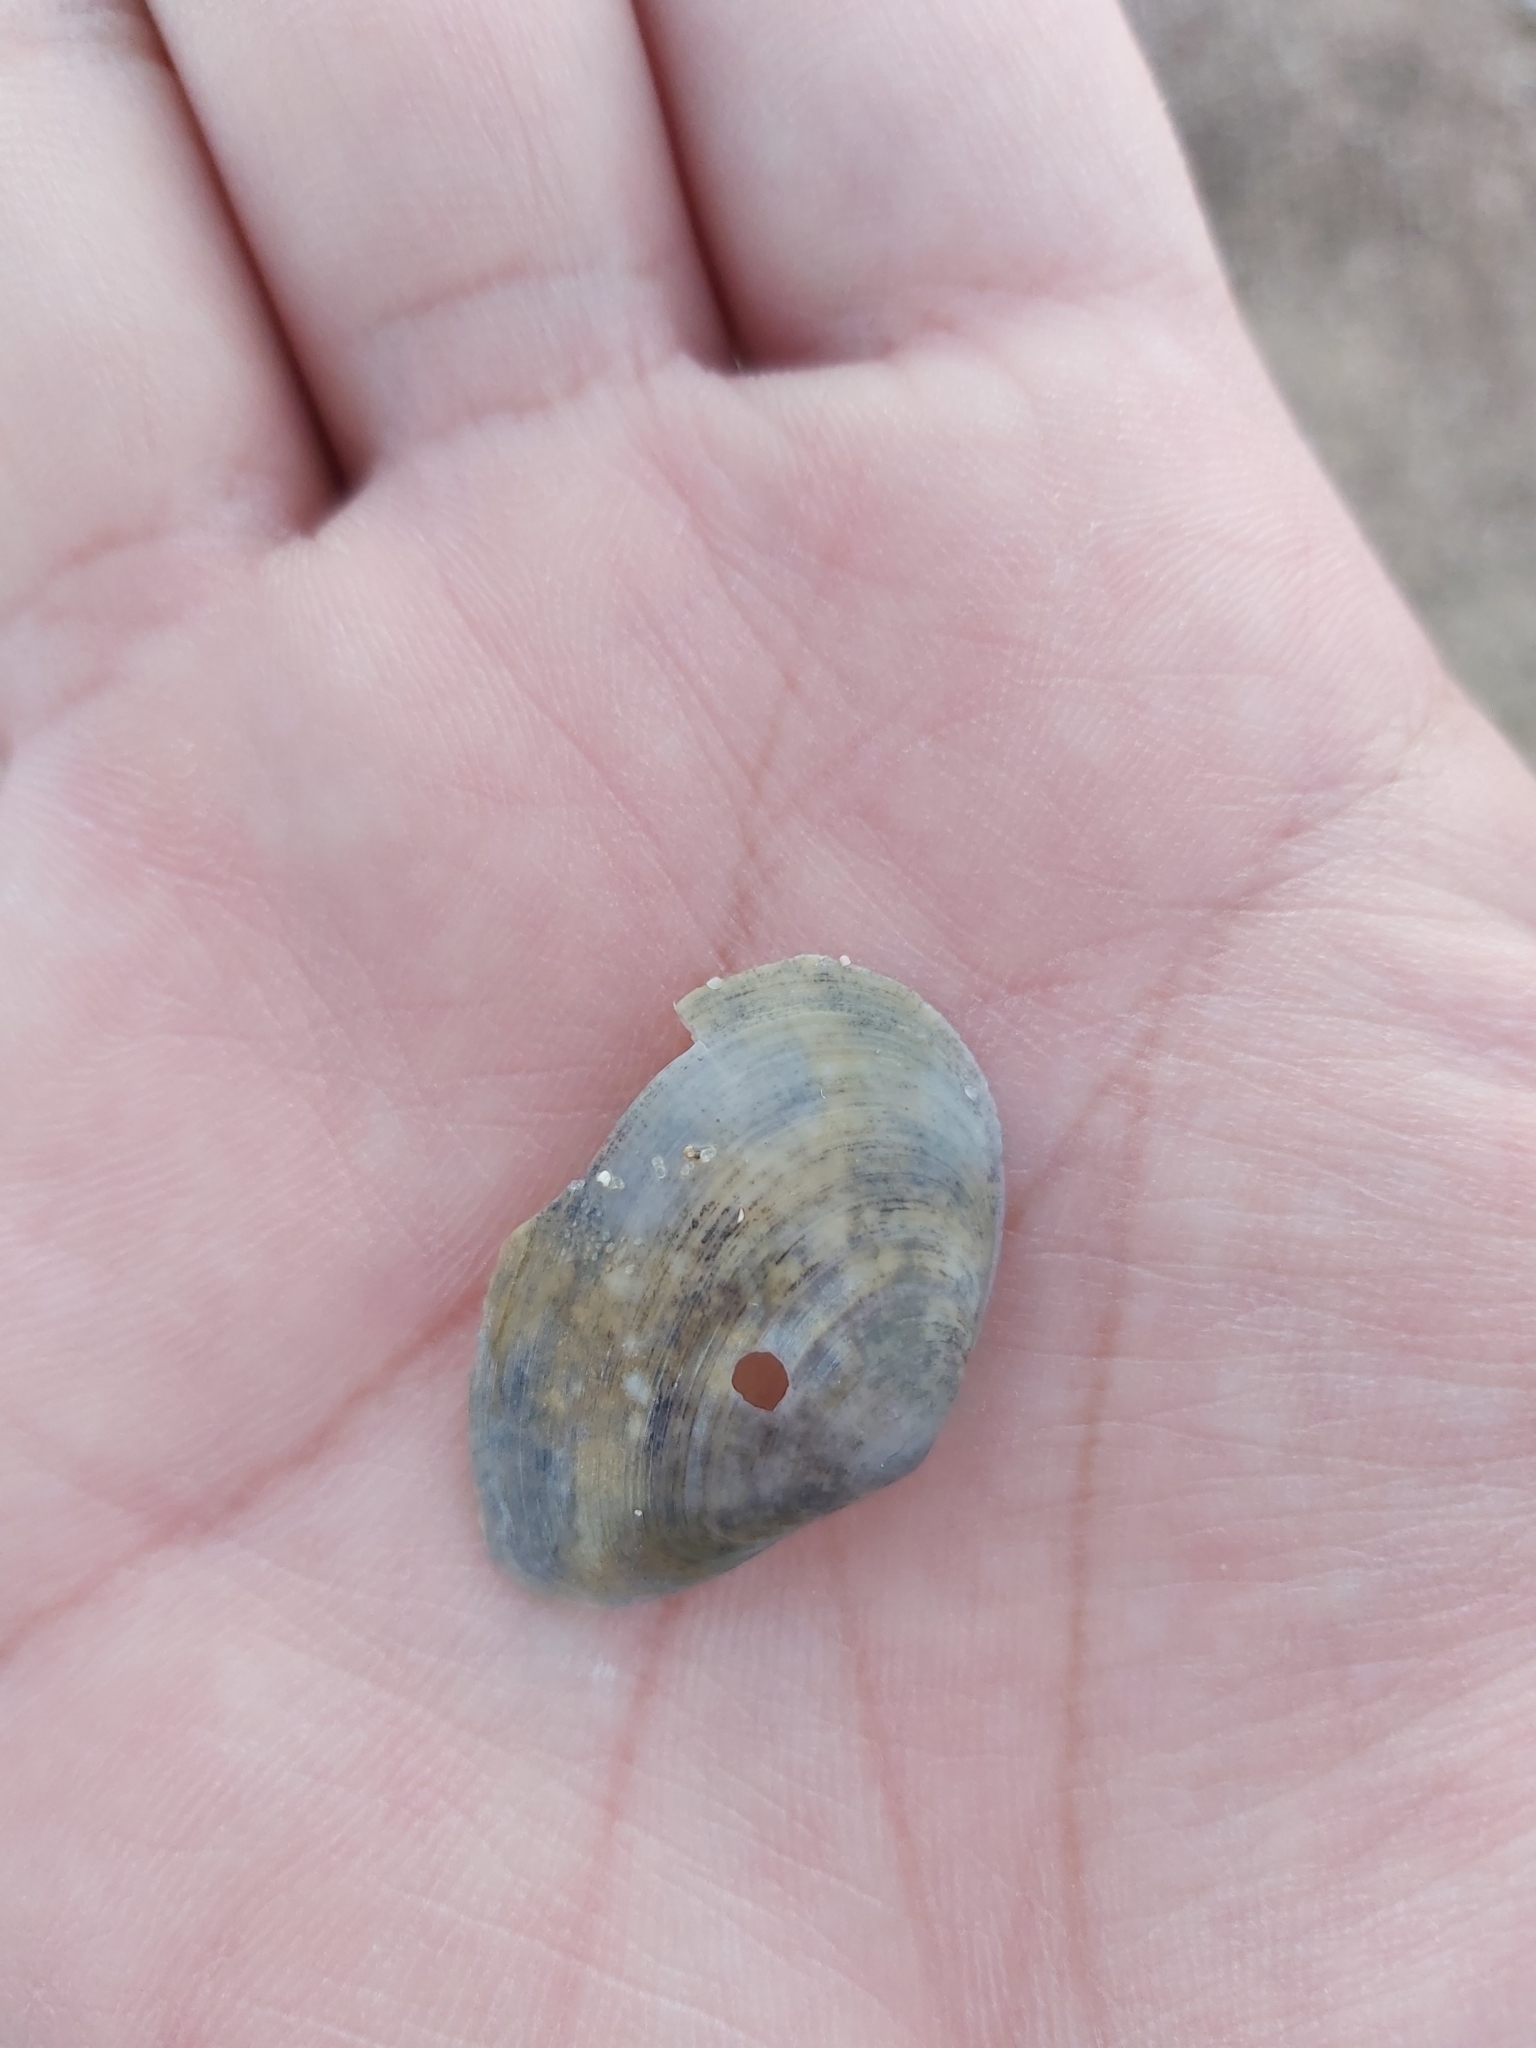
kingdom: Animalia
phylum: Mollusca
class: Bivalvia
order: Cardiida
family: Tellinidae
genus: Macomona
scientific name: Macomona deltoidalis
